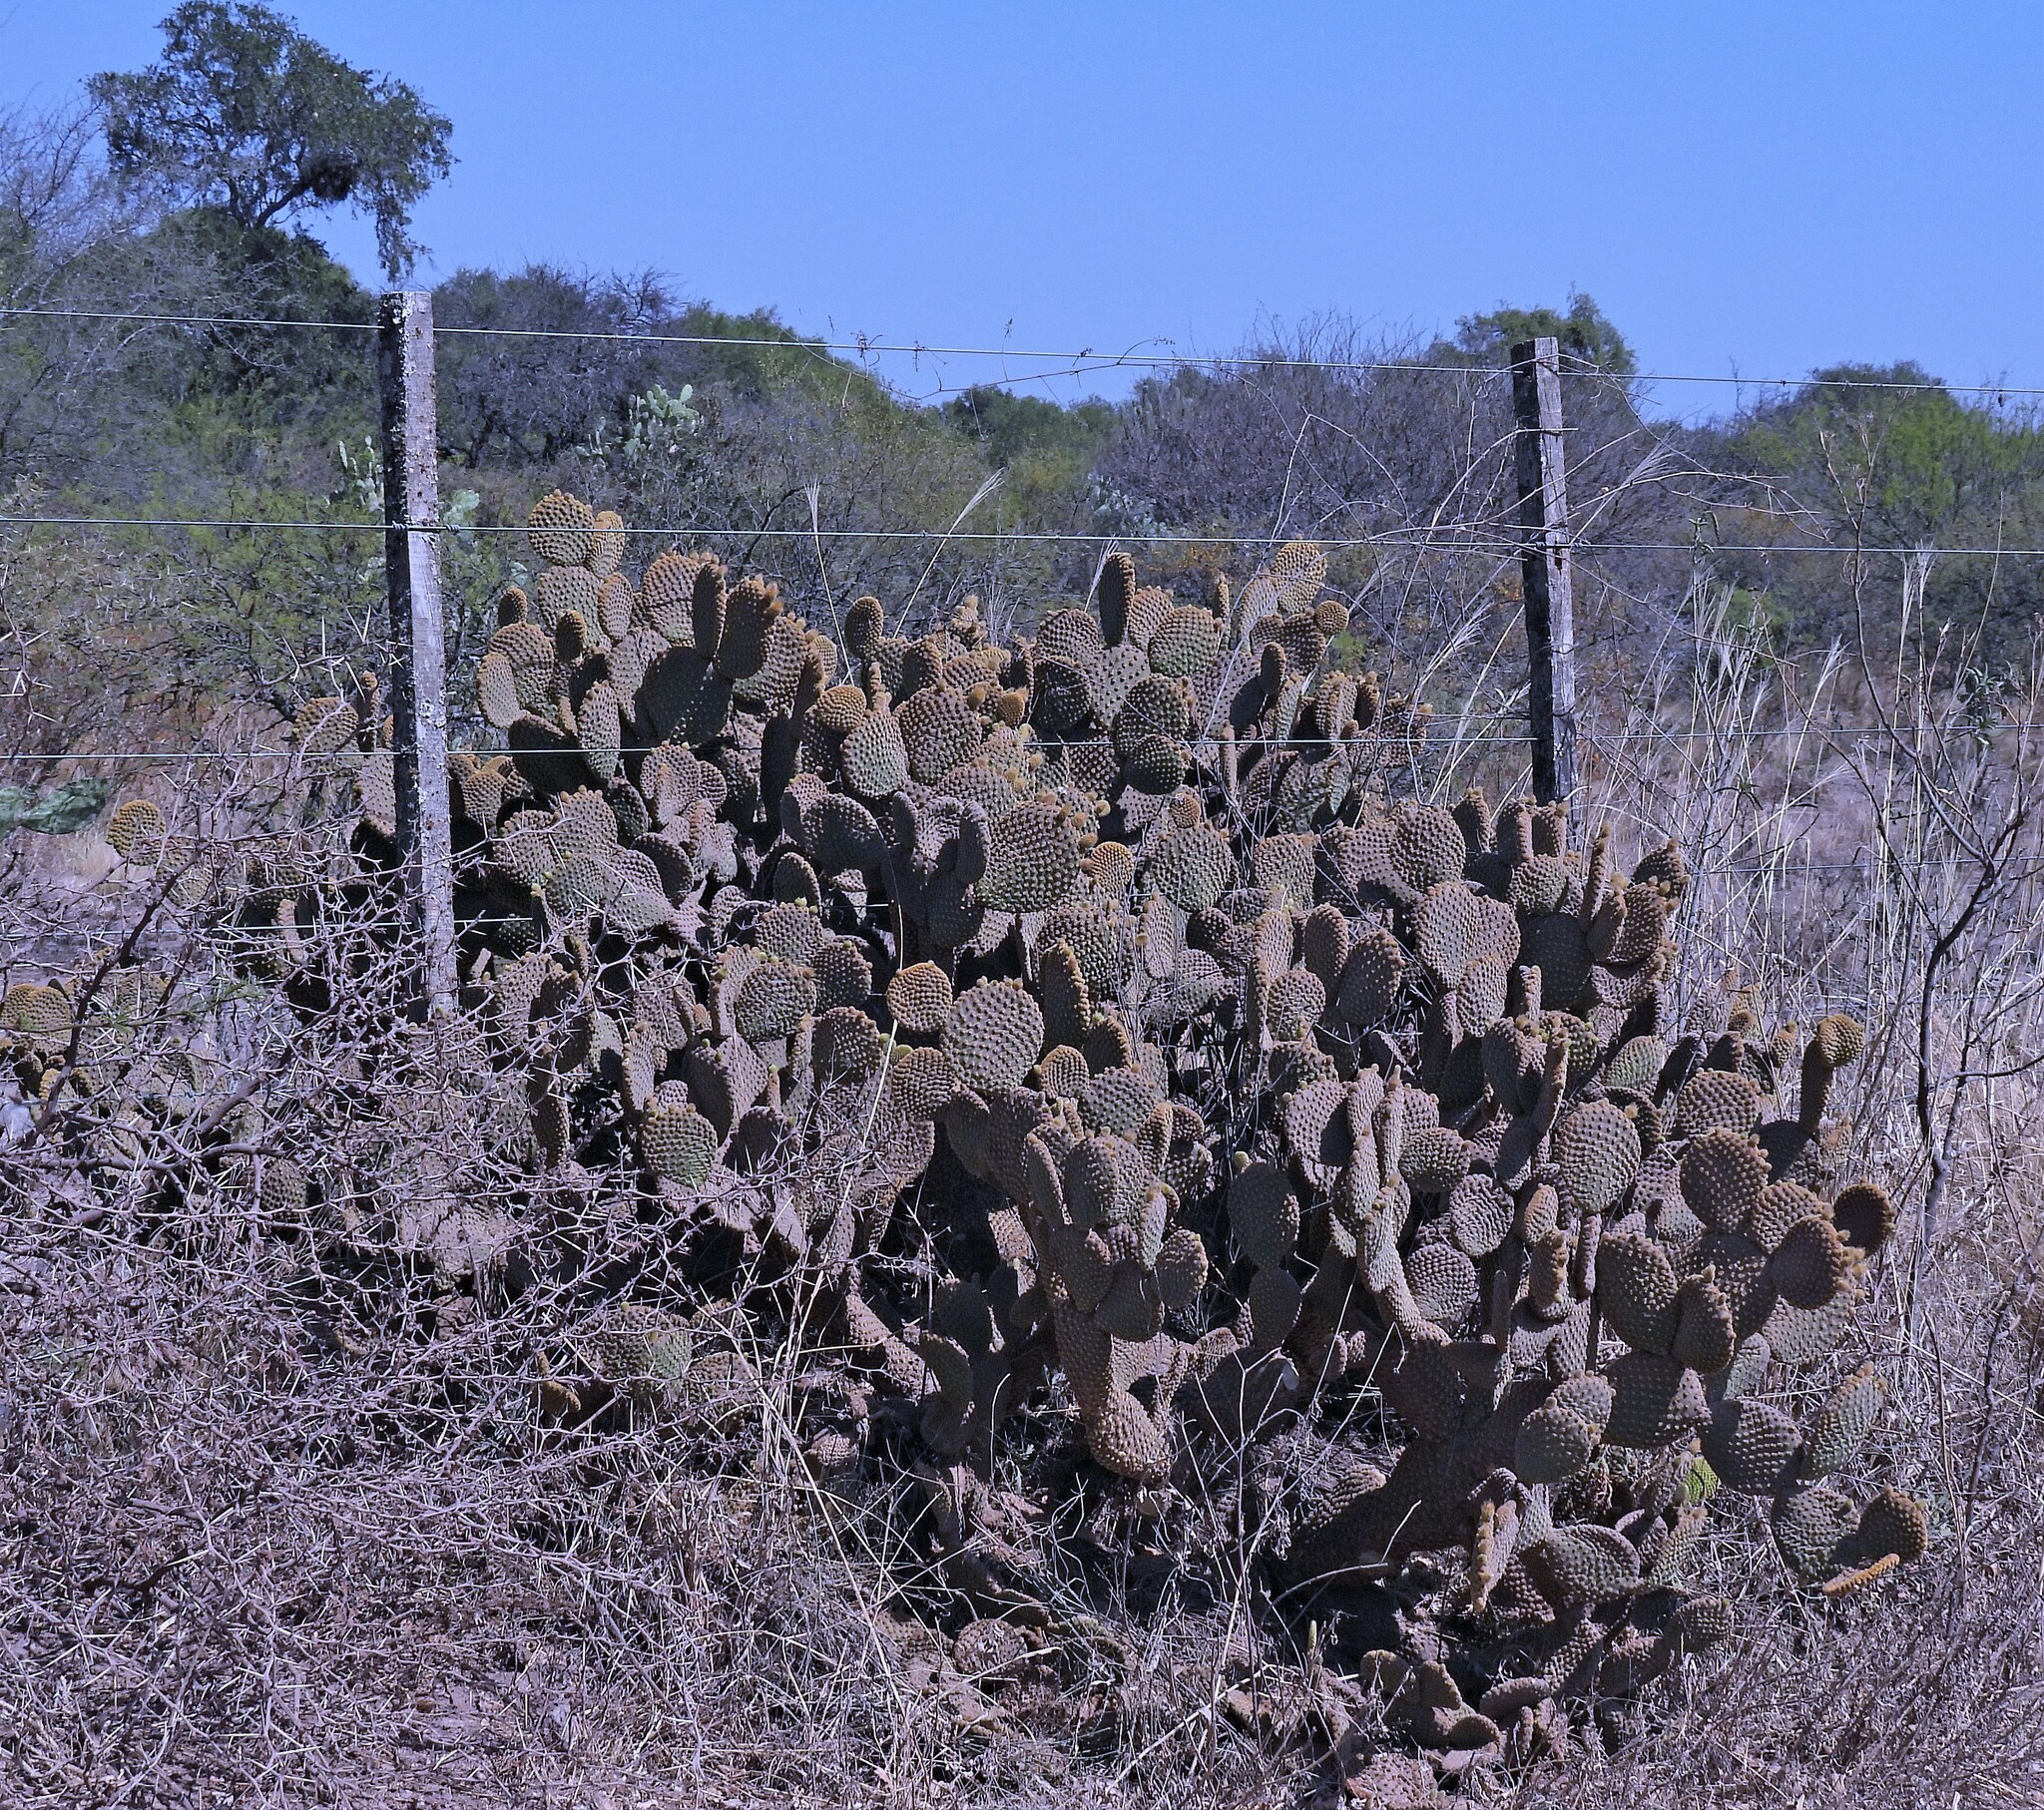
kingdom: Plantae
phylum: Tracheophyta
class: Magnoliopsida
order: Caryophyllales
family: Cactaceae
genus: Opuntia
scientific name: Opuntia microdasys
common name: Angel's-wings
